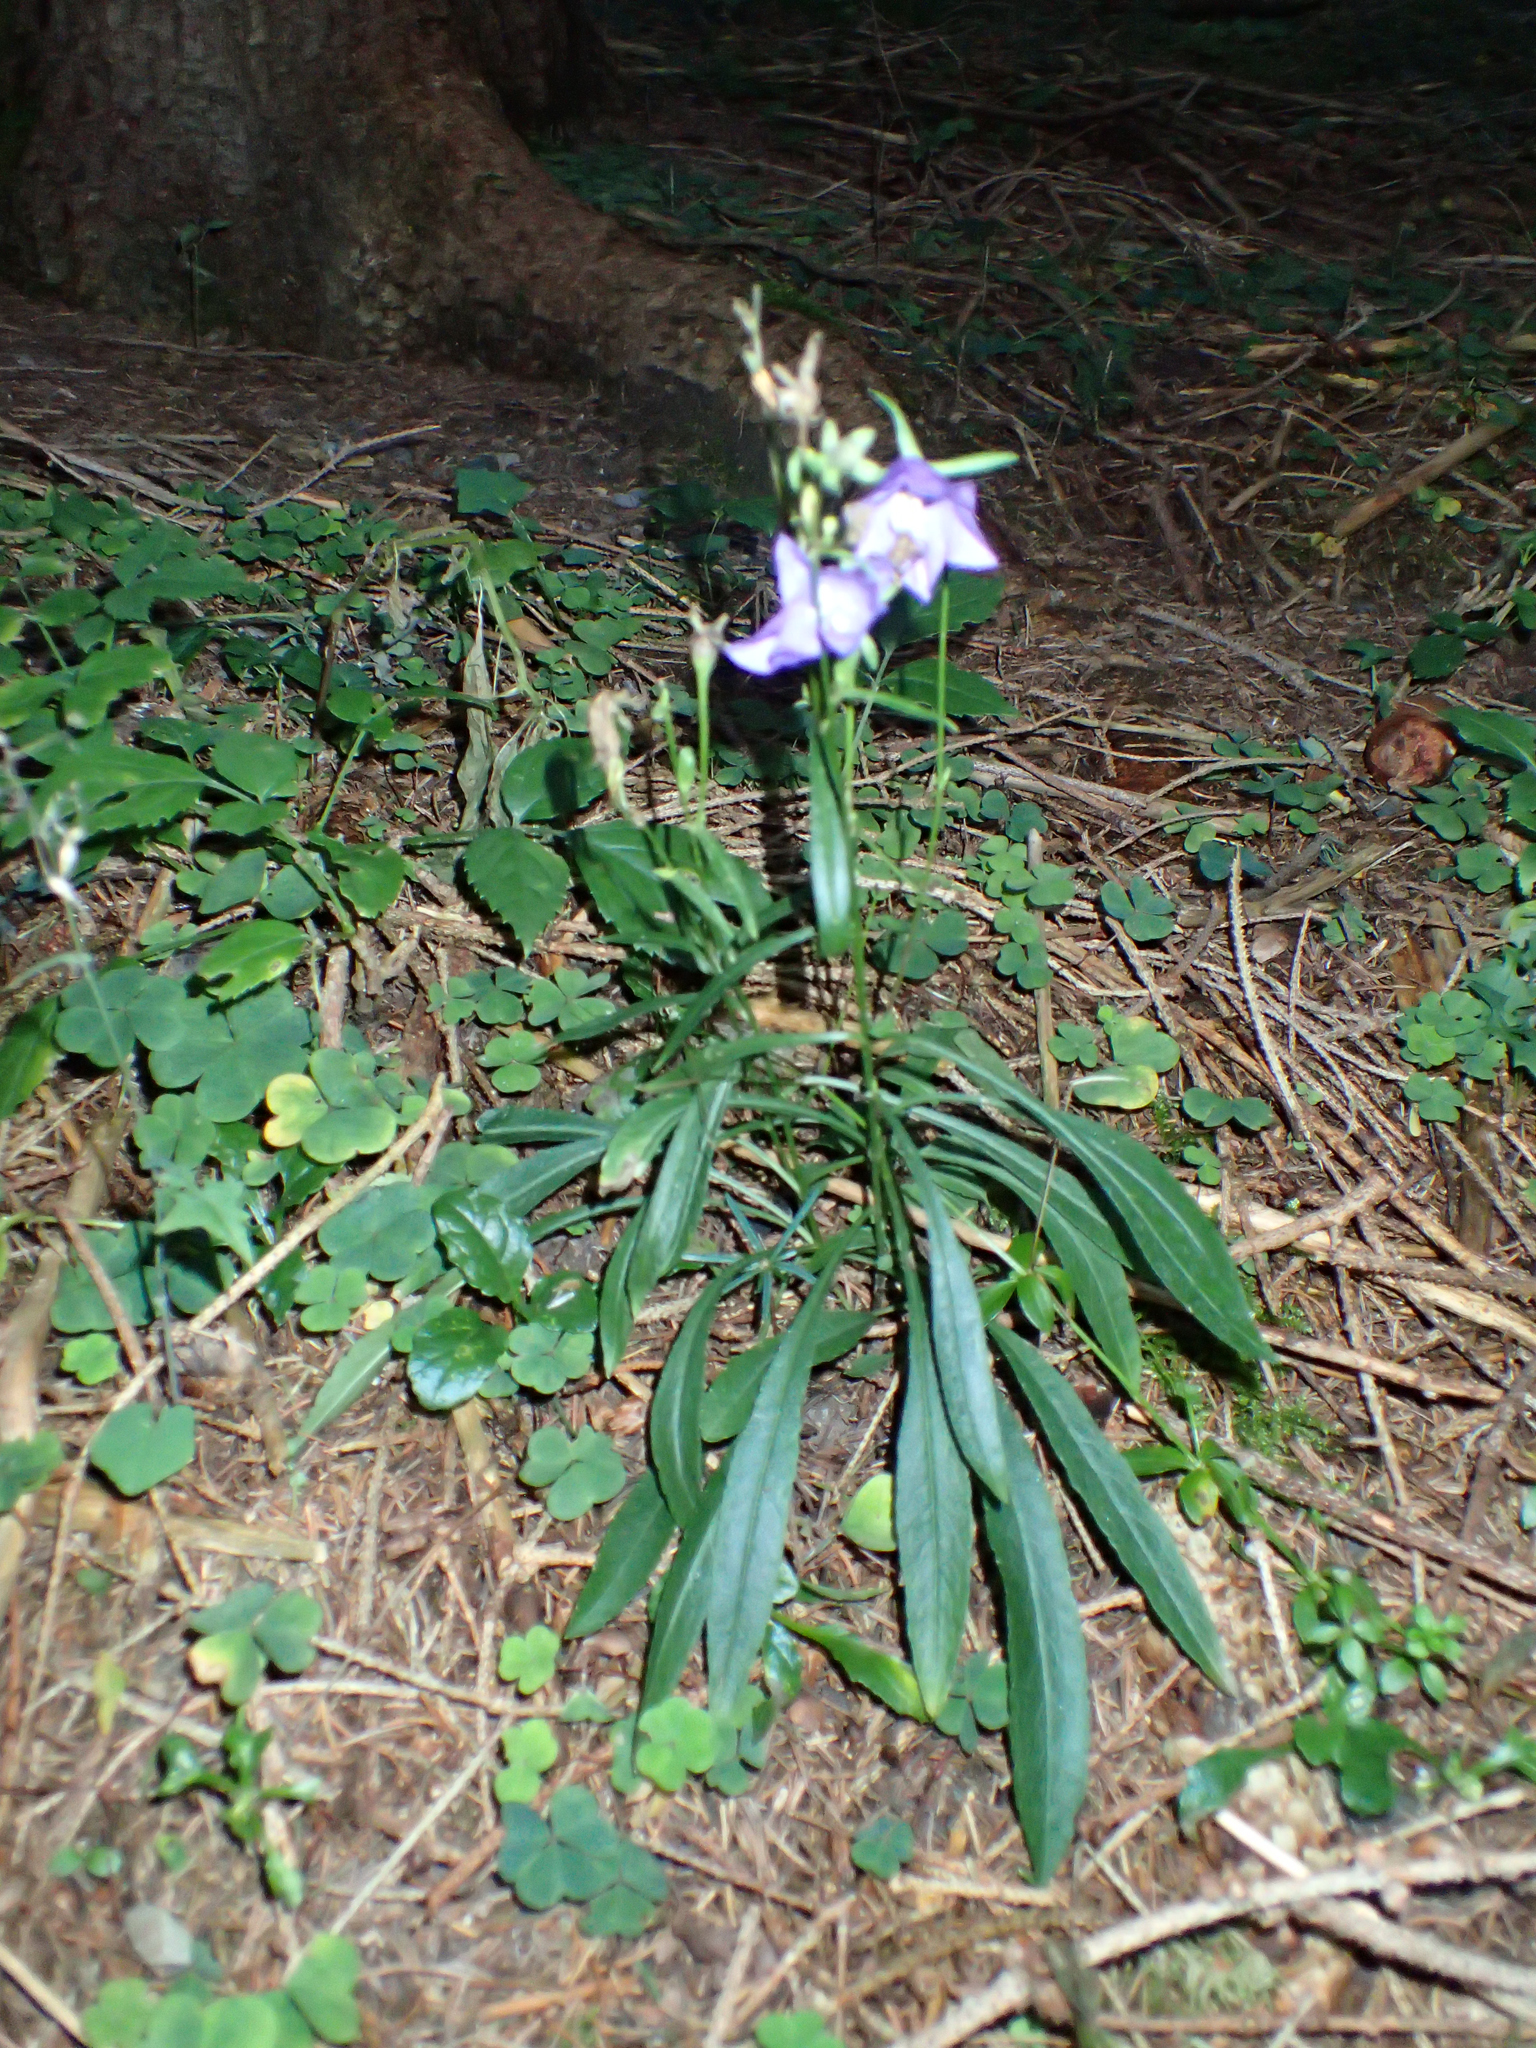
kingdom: Plantae
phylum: Tracheophyta
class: Magnoliopsida
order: Asterales
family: Campanulaceae
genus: Campanula
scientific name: Campanula persicifolia
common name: Peach-leaved bellflower
